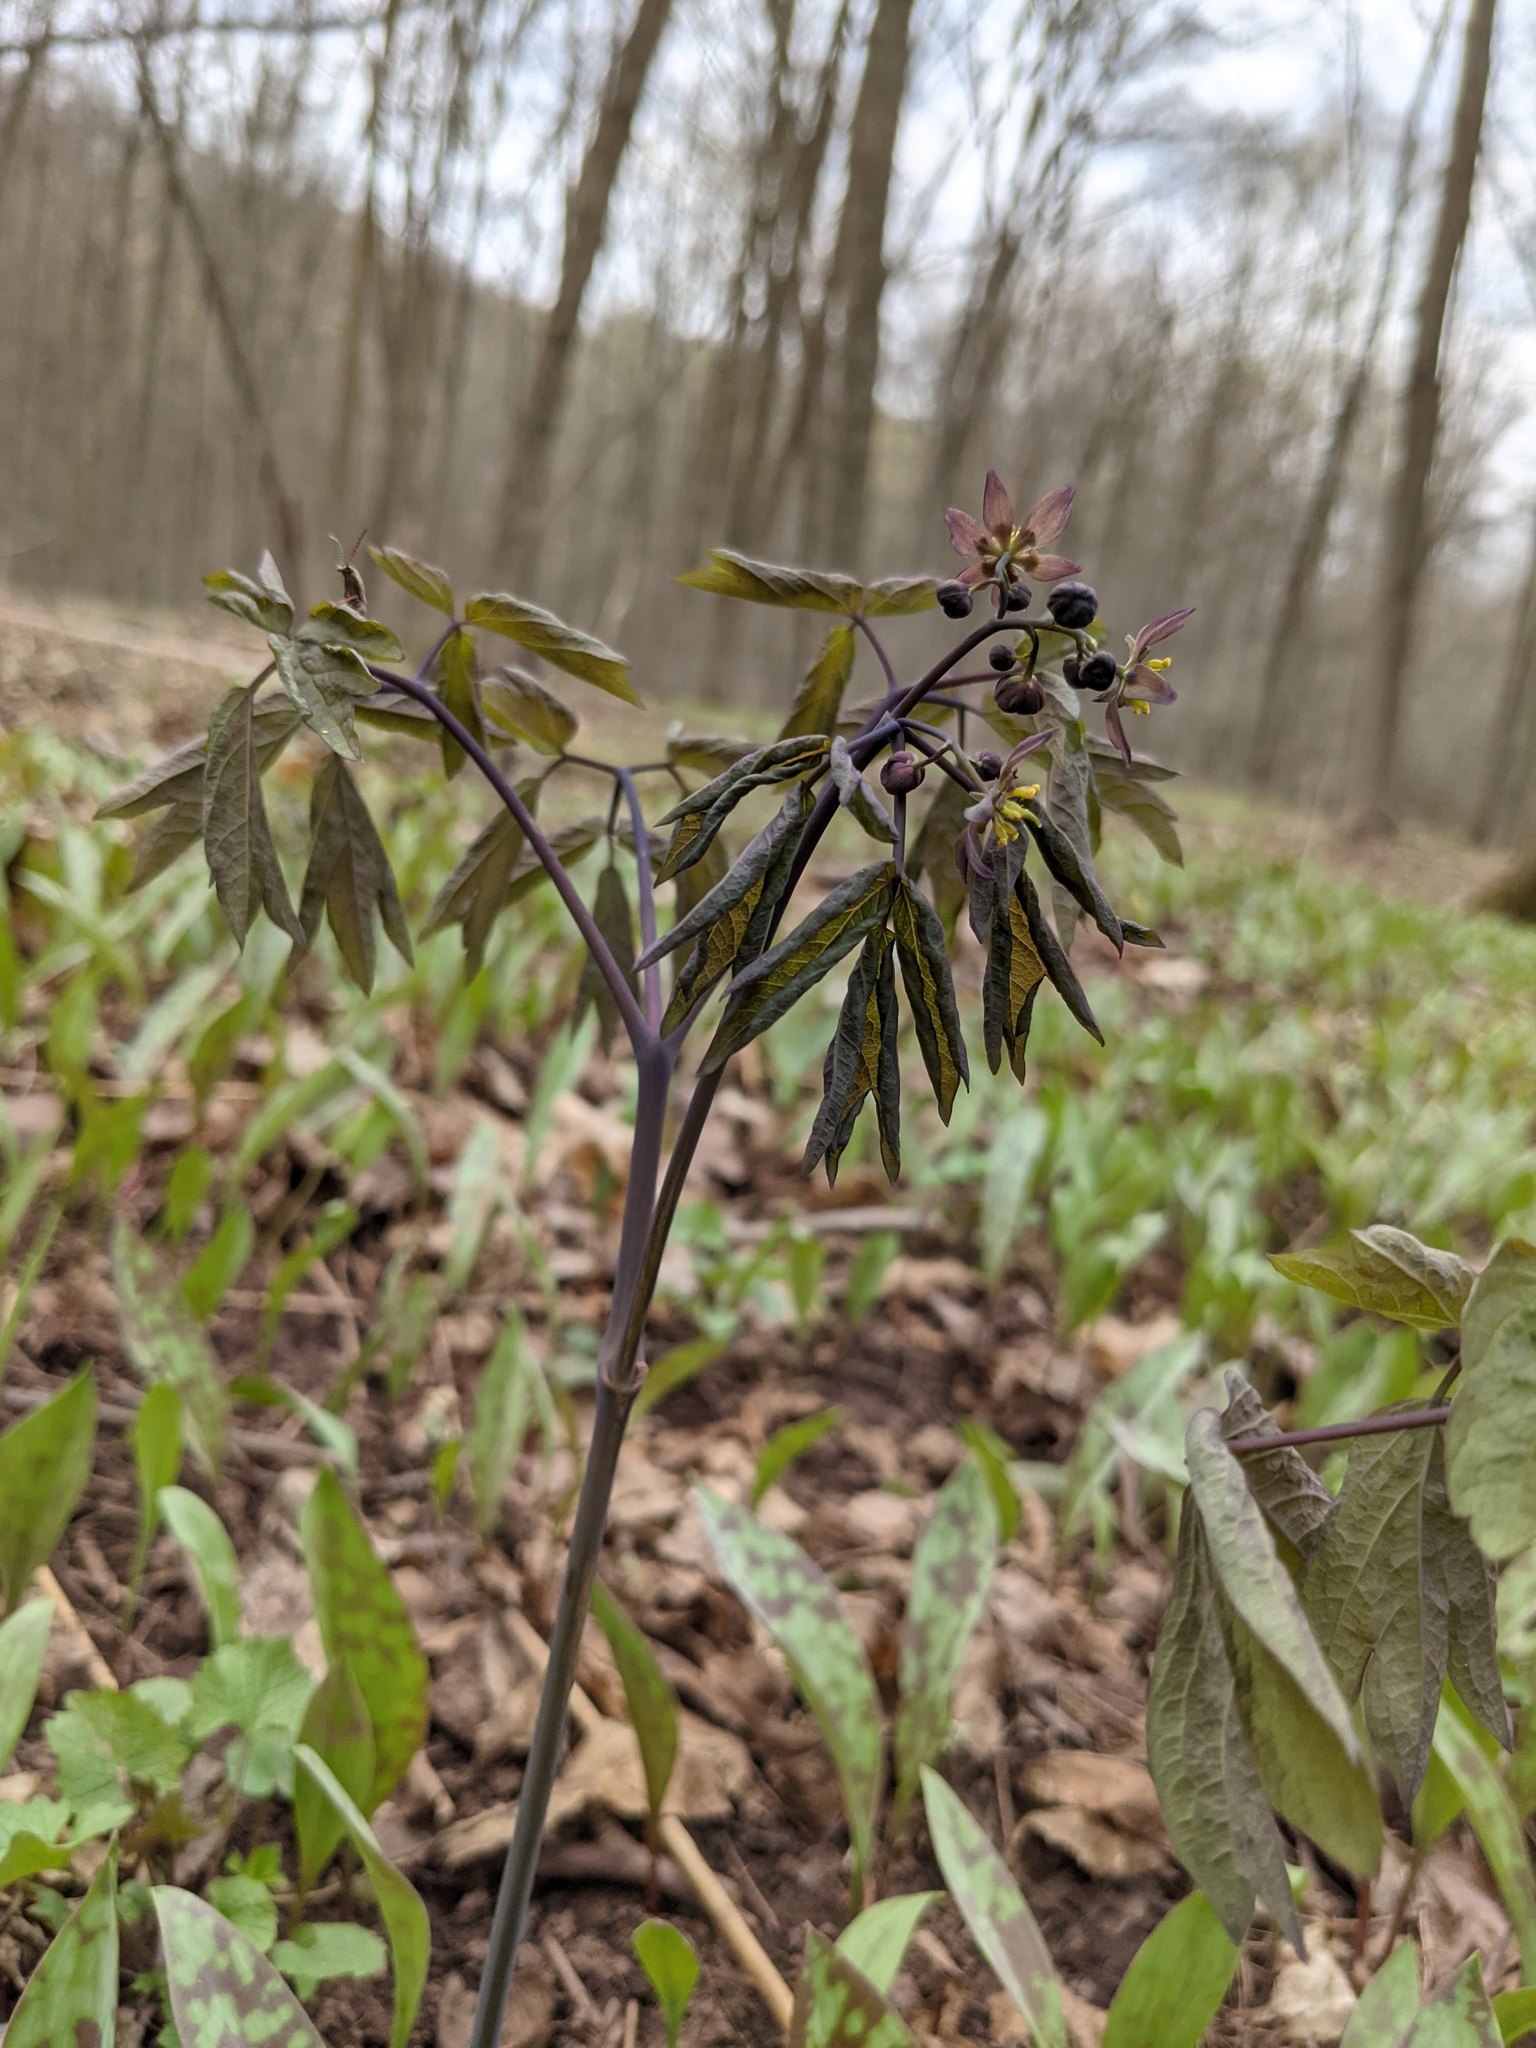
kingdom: Plantae
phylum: Tracheophyta
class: Magnoliopsida
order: Ranunculales
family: Berberidaceae
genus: Caulophyllum
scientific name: Caulophyllum giganteum
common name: Blue cohosh
